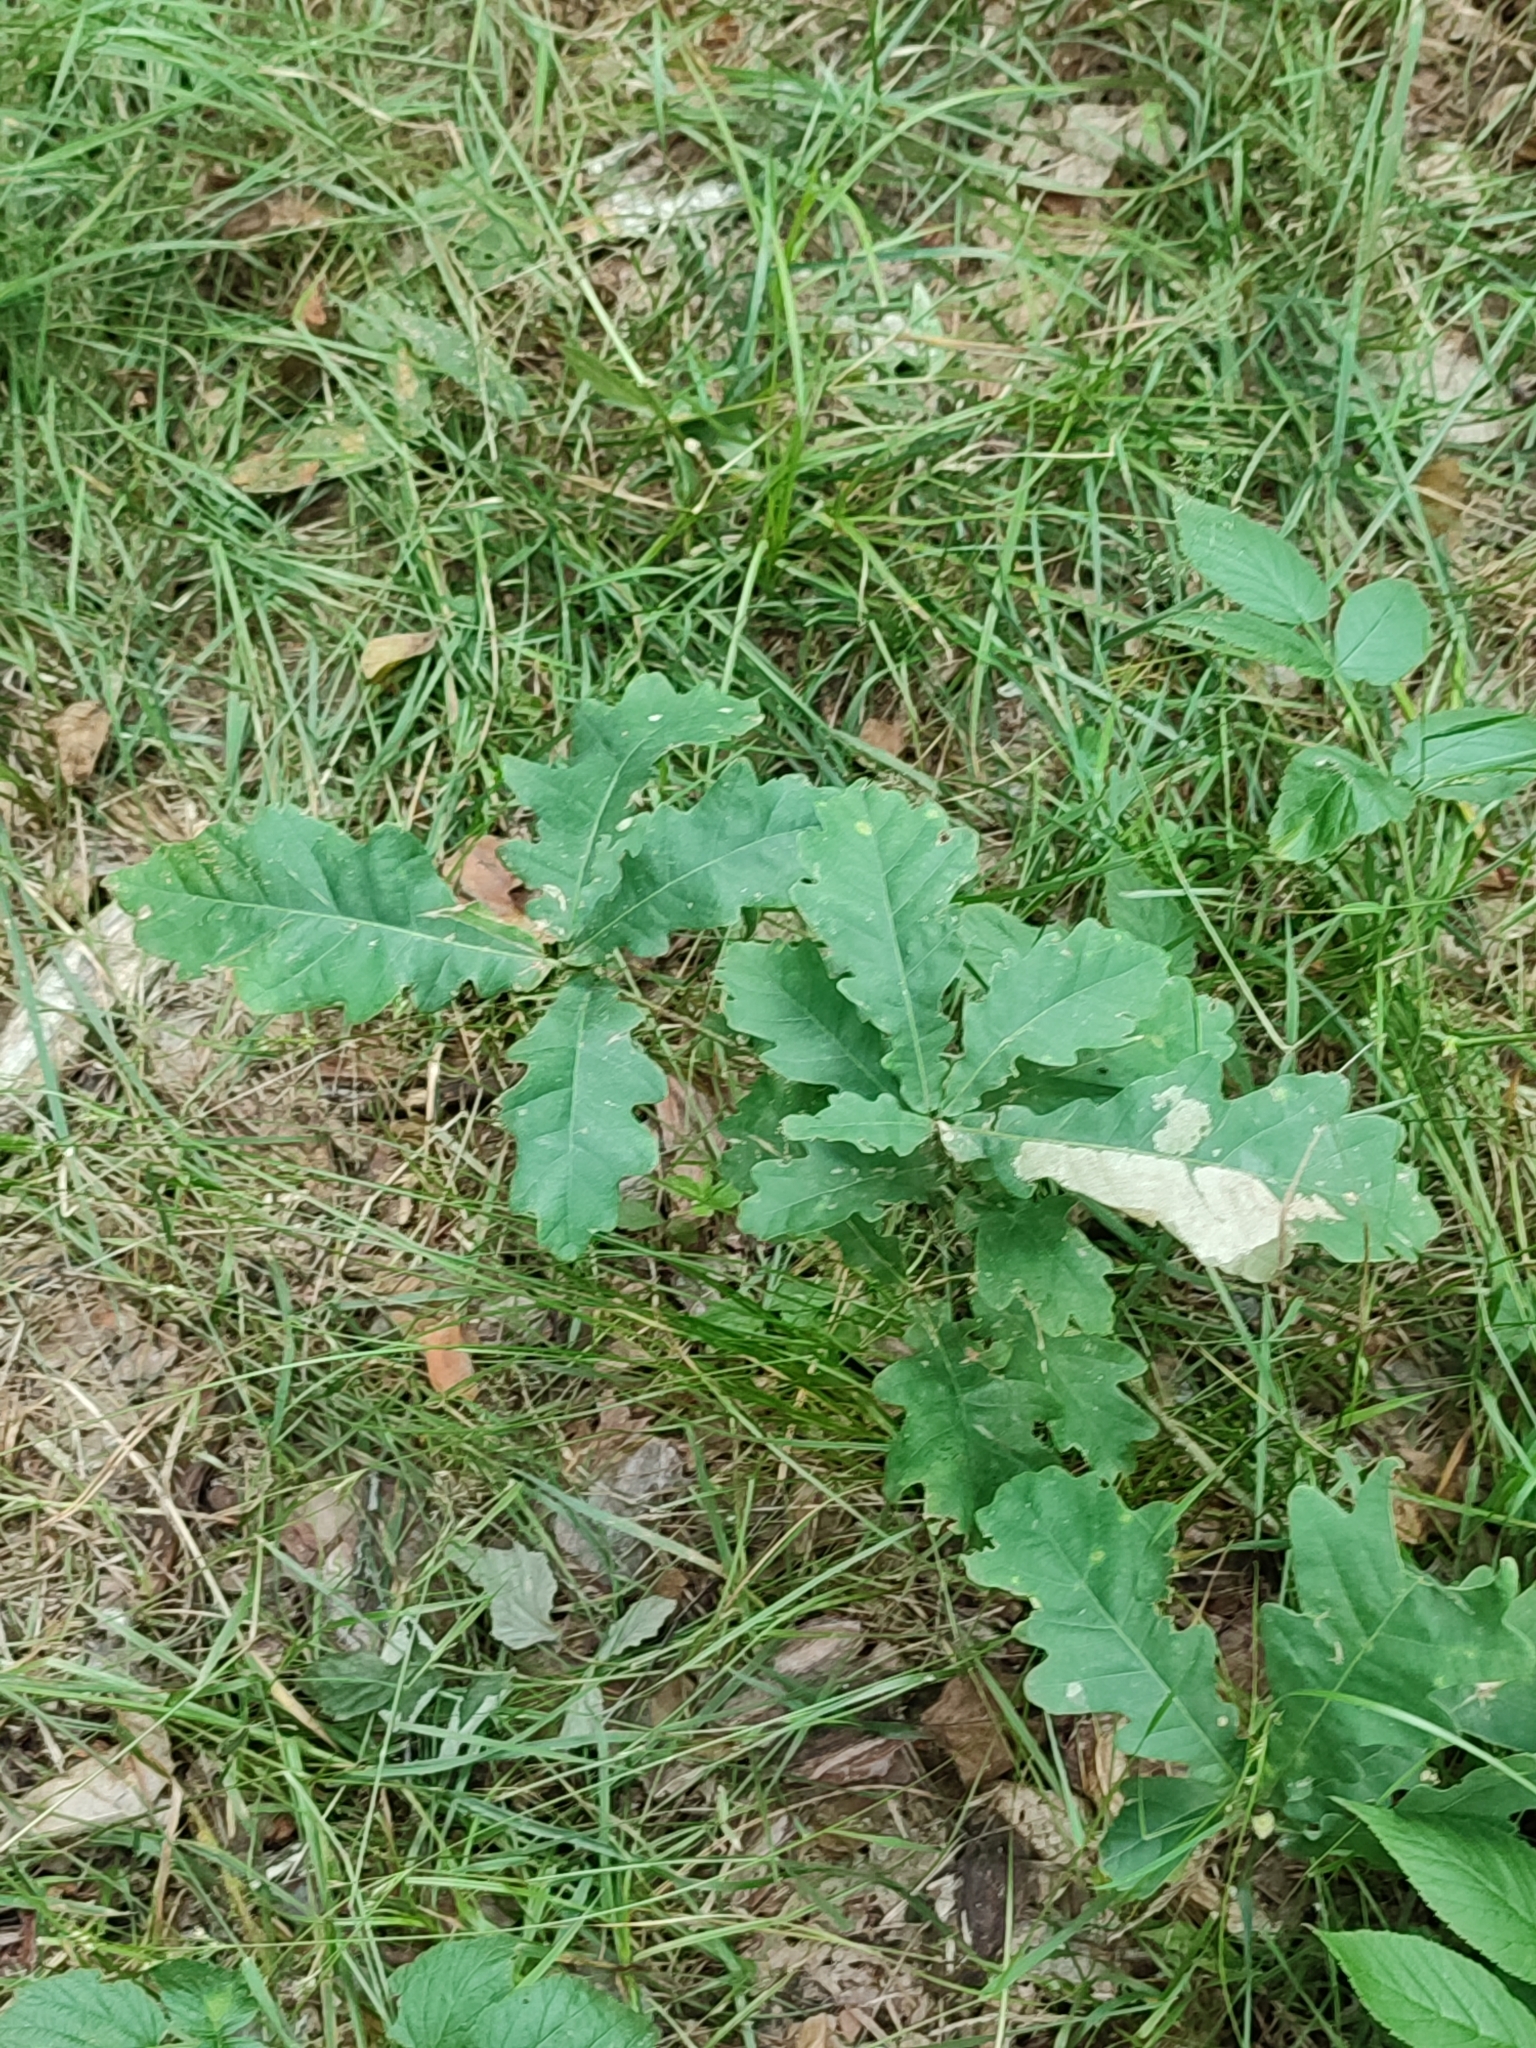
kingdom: Plantae
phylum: Tracheophyta
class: Magnoliopsida
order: Fagales
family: Fagaceae
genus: Quercus
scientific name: Quercus robur
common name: Pedunculate oak
